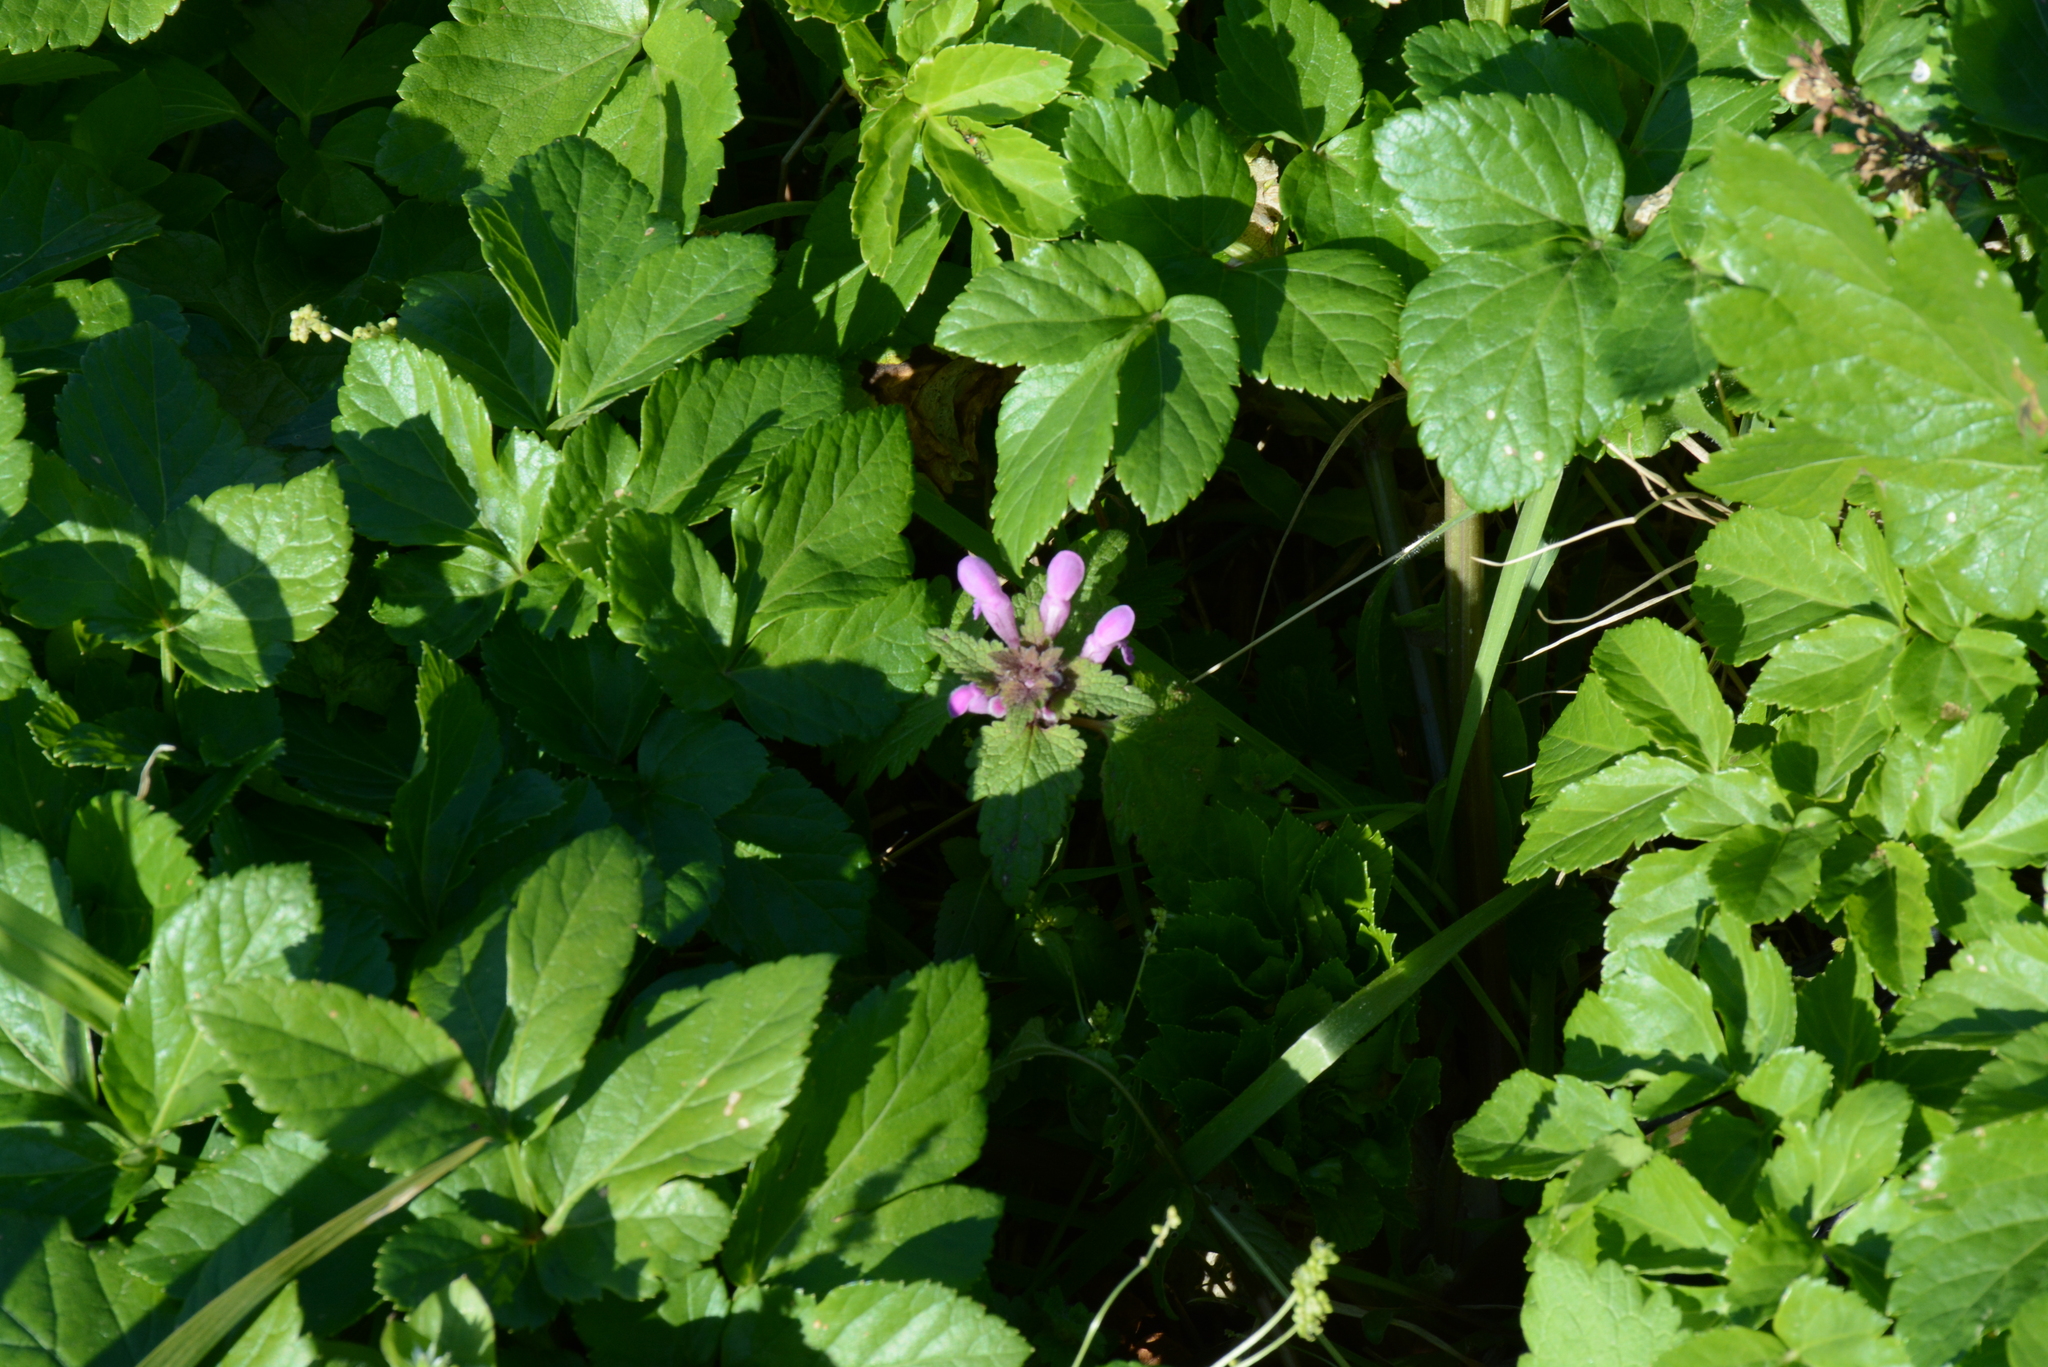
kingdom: Plantae
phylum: Tracheophyta
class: Magnoliopsida
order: Lamiales
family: Lamiaceae
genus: Lamium
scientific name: Lamium purpureum
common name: Red dead-nettle
